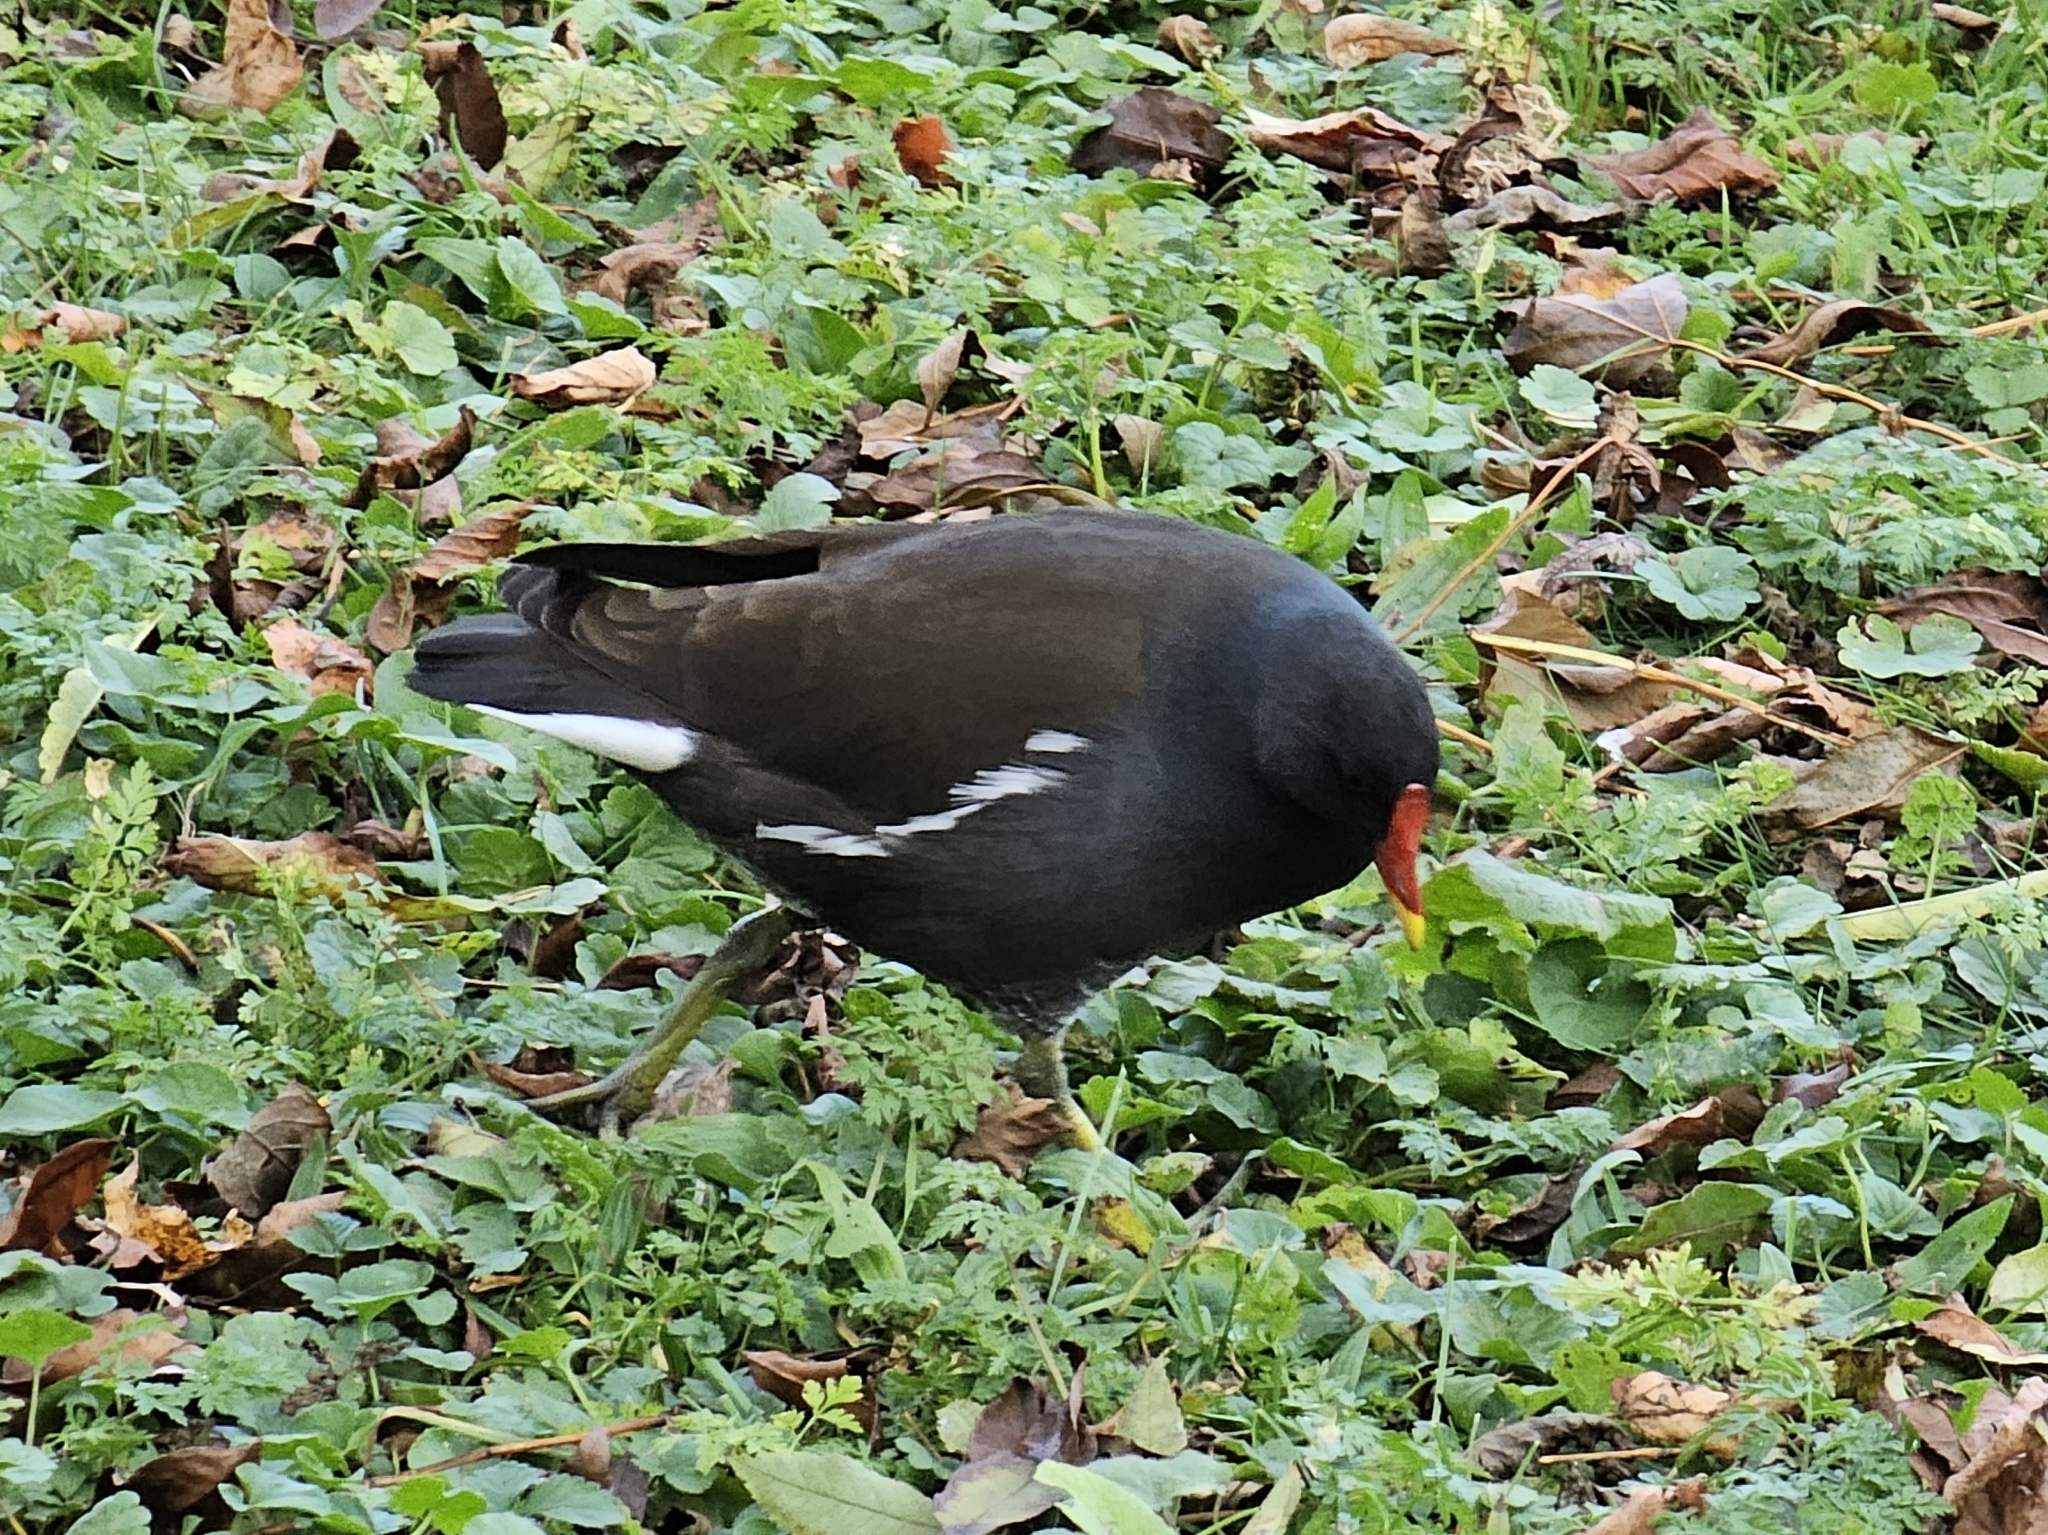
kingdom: Animalia
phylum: Chordata
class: Aves
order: Gruiformes
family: Rallidae
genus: Gallinula
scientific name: Gallinula chloropus
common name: Common moorhen
